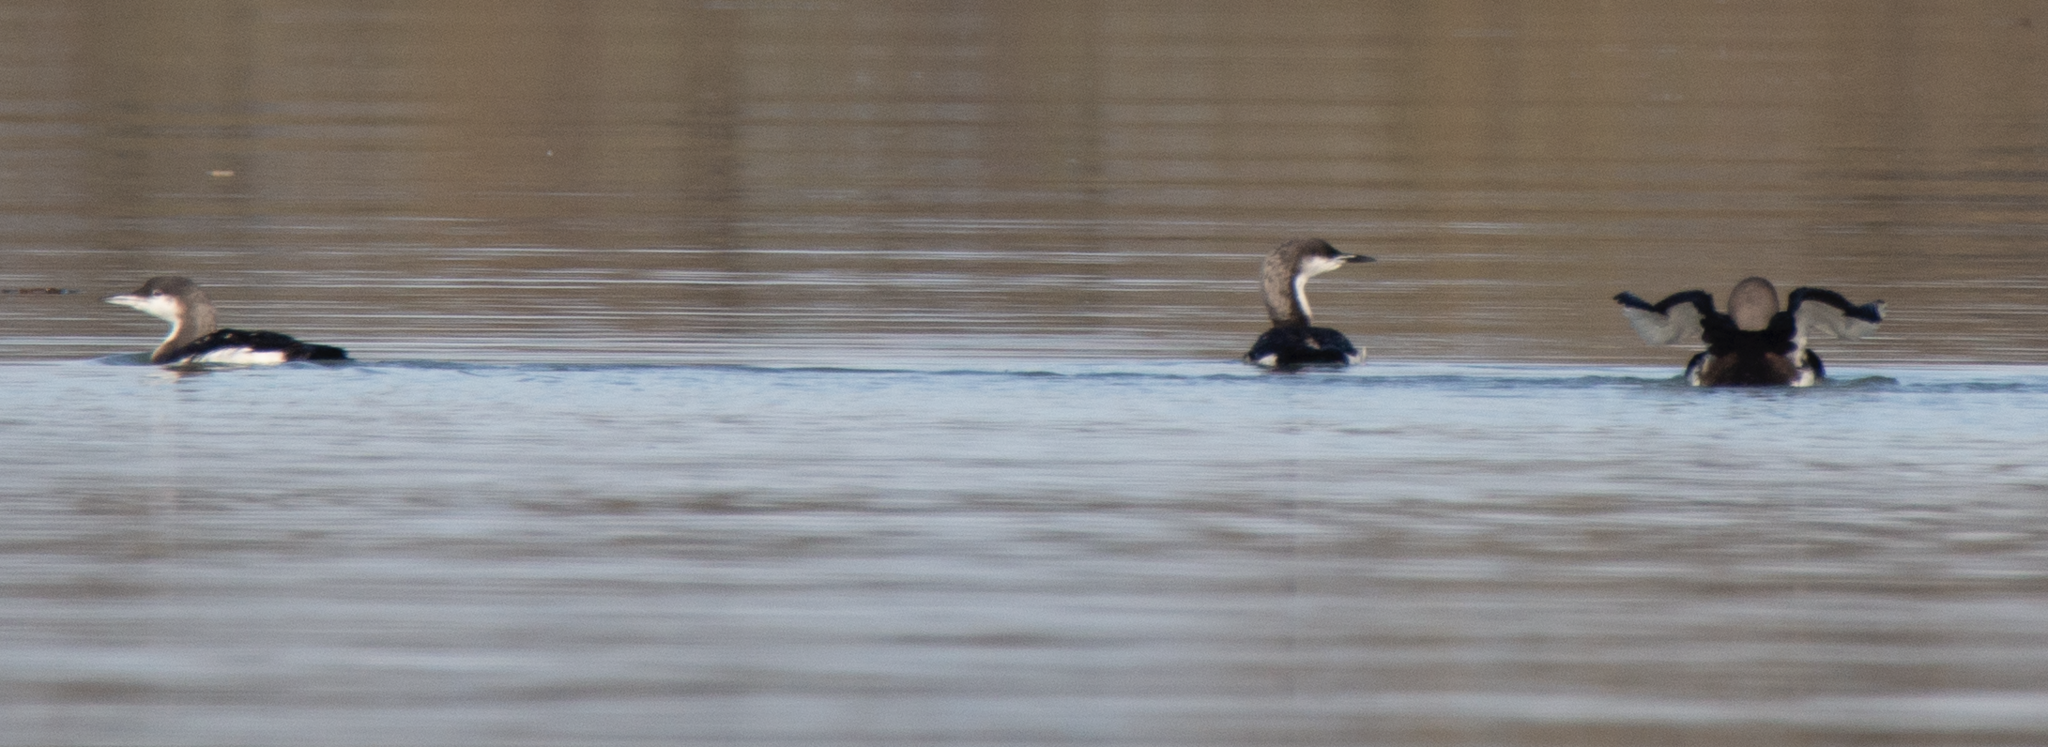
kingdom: Animalia
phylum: Chordata
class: Aves
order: Gaviiformes
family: Gaviidae
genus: Gavia
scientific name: Gavia arctica
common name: Black-throated loon
